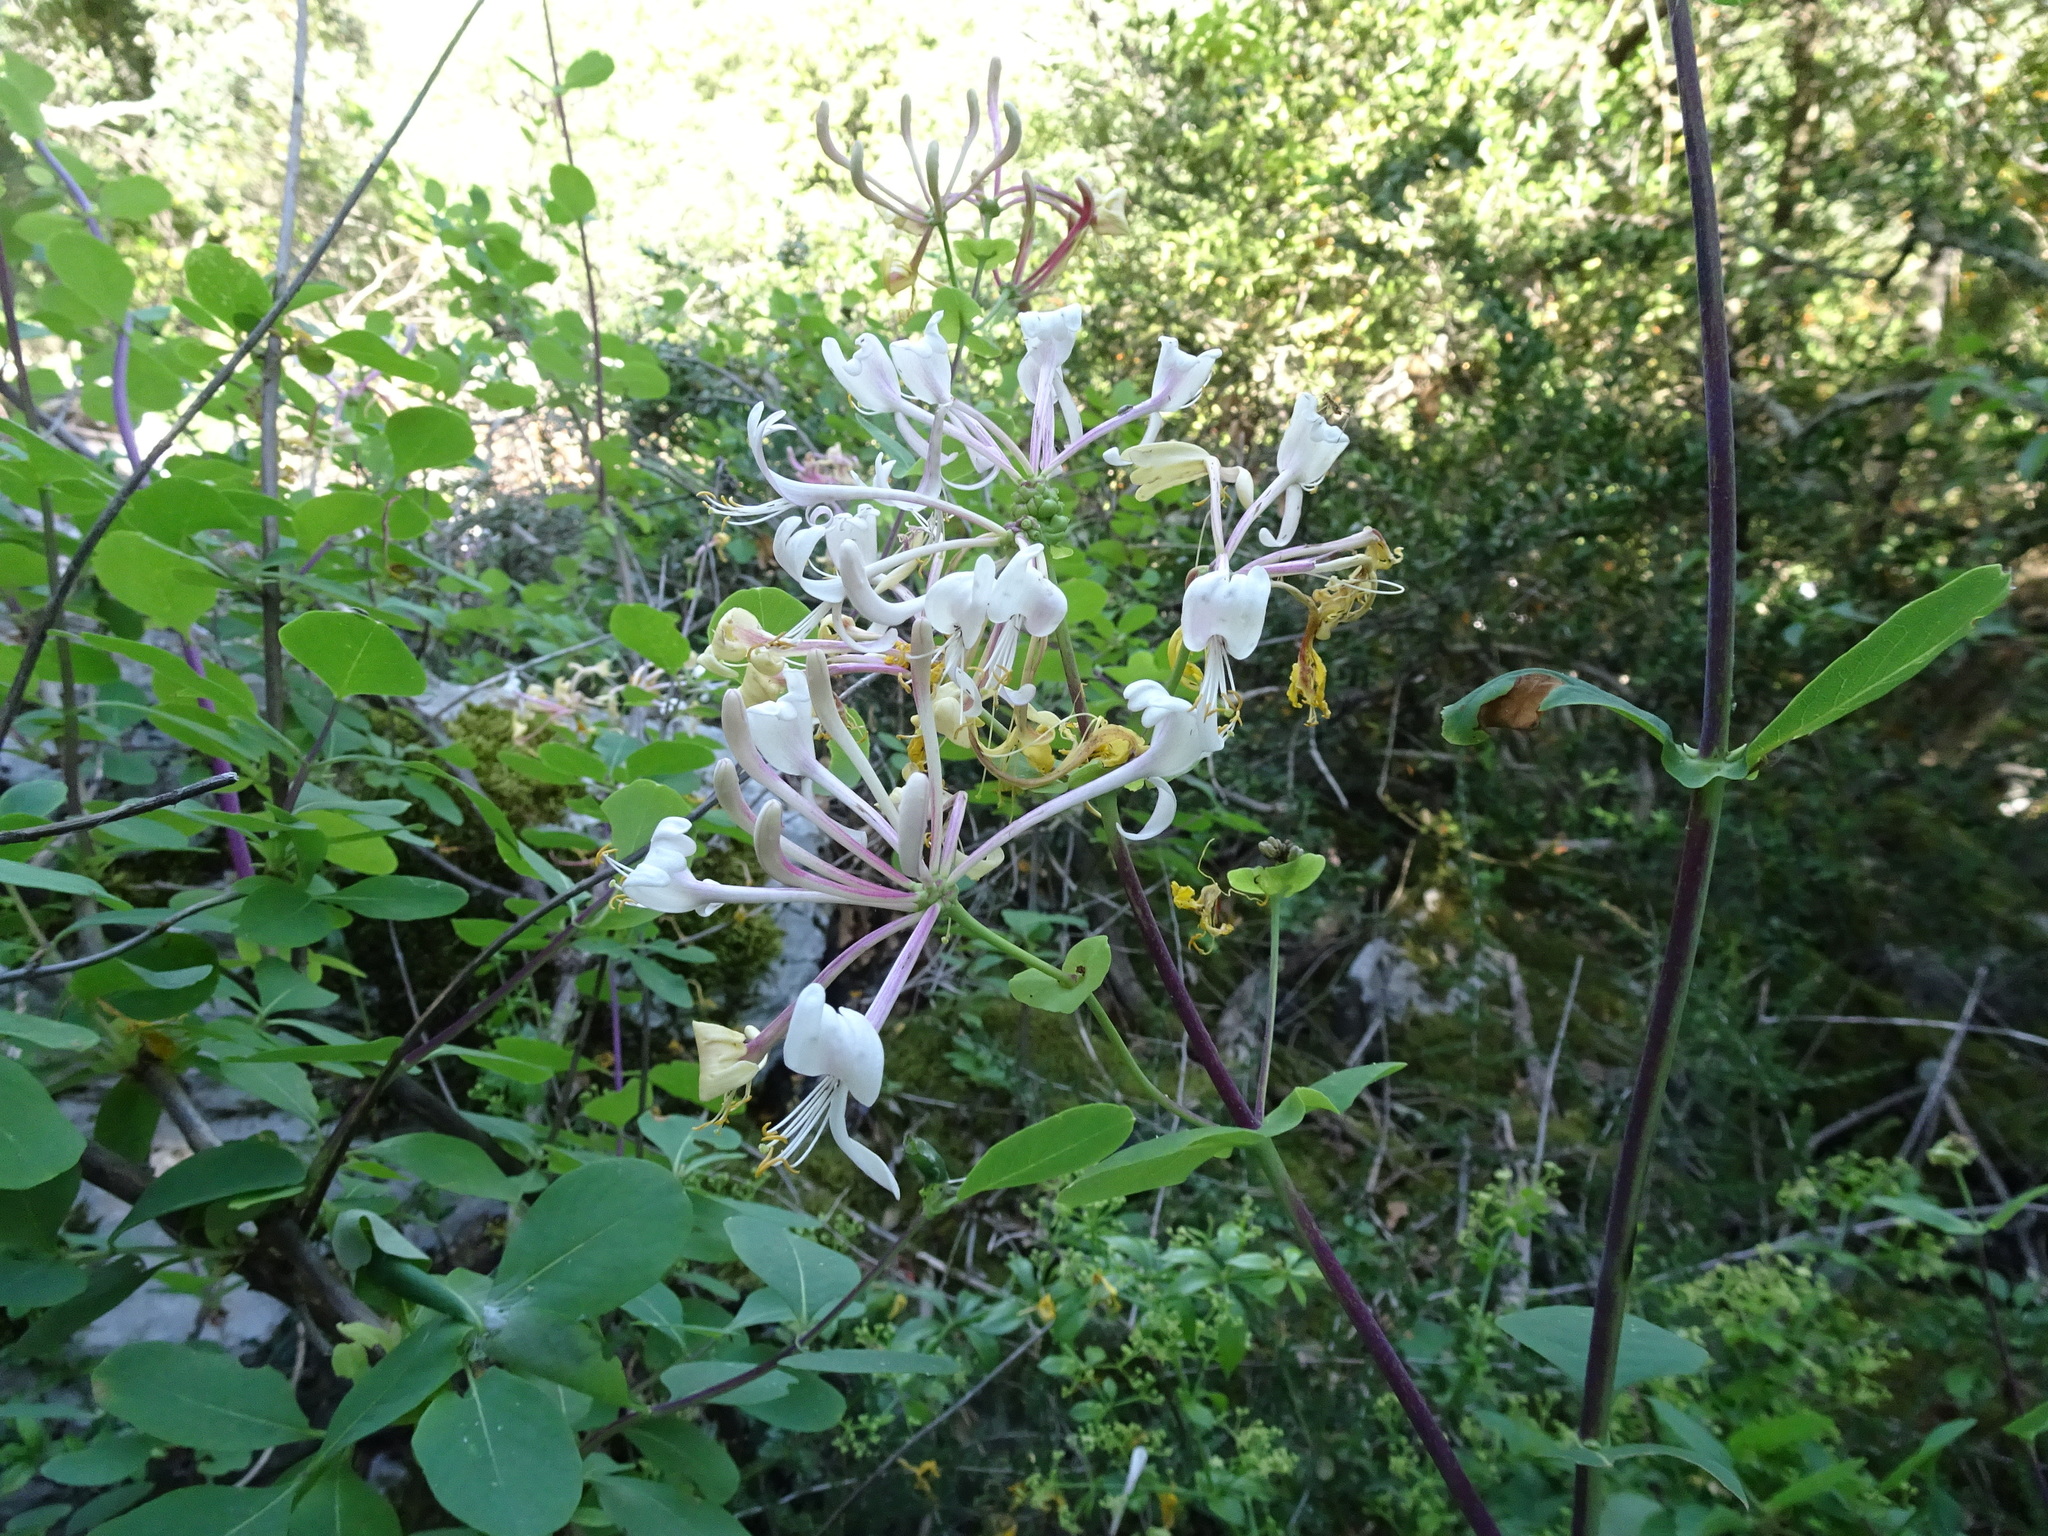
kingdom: Plantae
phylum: Tracheophyta
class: Magnoliopsida
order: Dipsacales
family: Caprifoliaceae
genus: Lonicera
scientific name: Lonicera etrusca
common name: Etruscan honeysuckle
